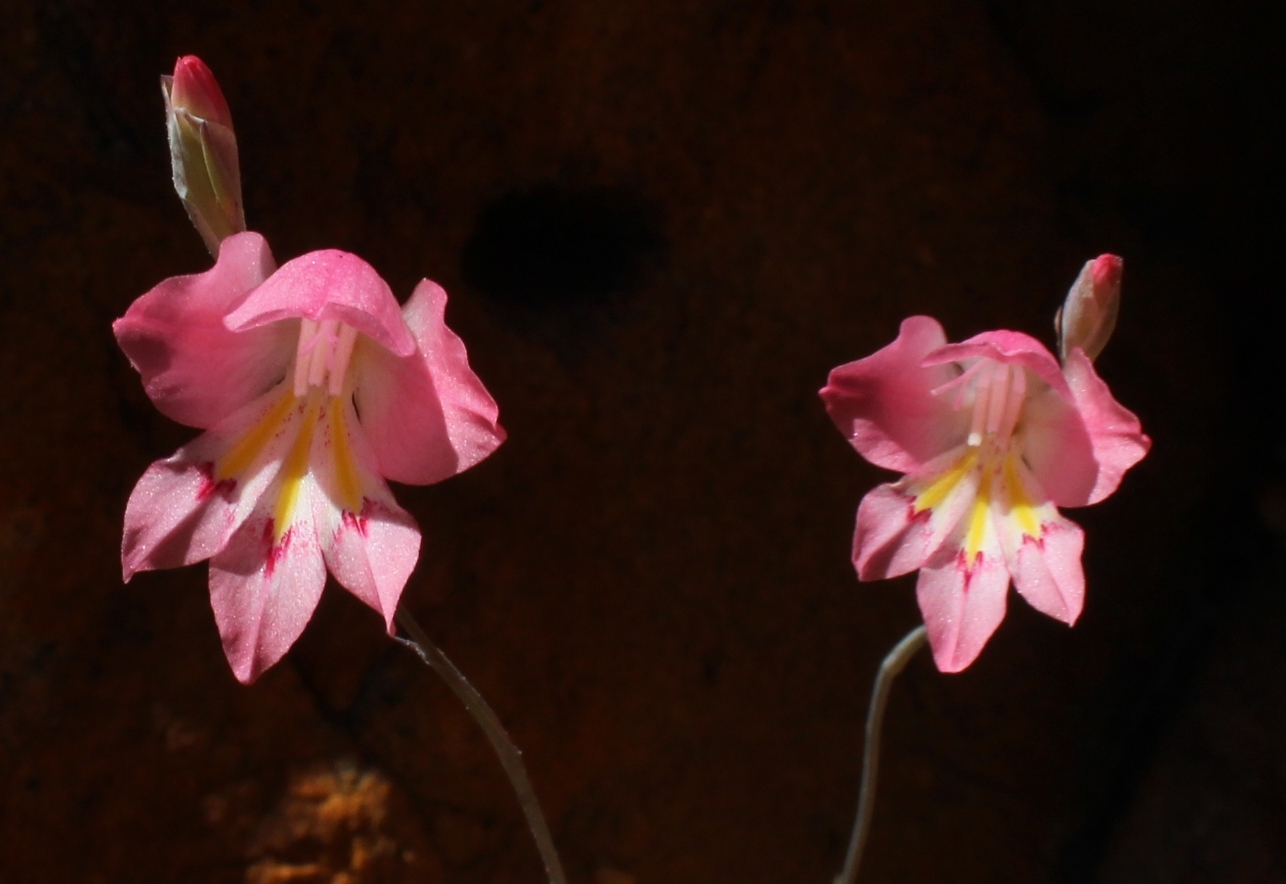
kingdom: Plantae
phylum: Tracheophyta
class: Liliopsida
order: Asparagales
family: Iridaceae
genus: Gladiolus
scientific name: Gladiolus brevifolius
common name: March pypie
